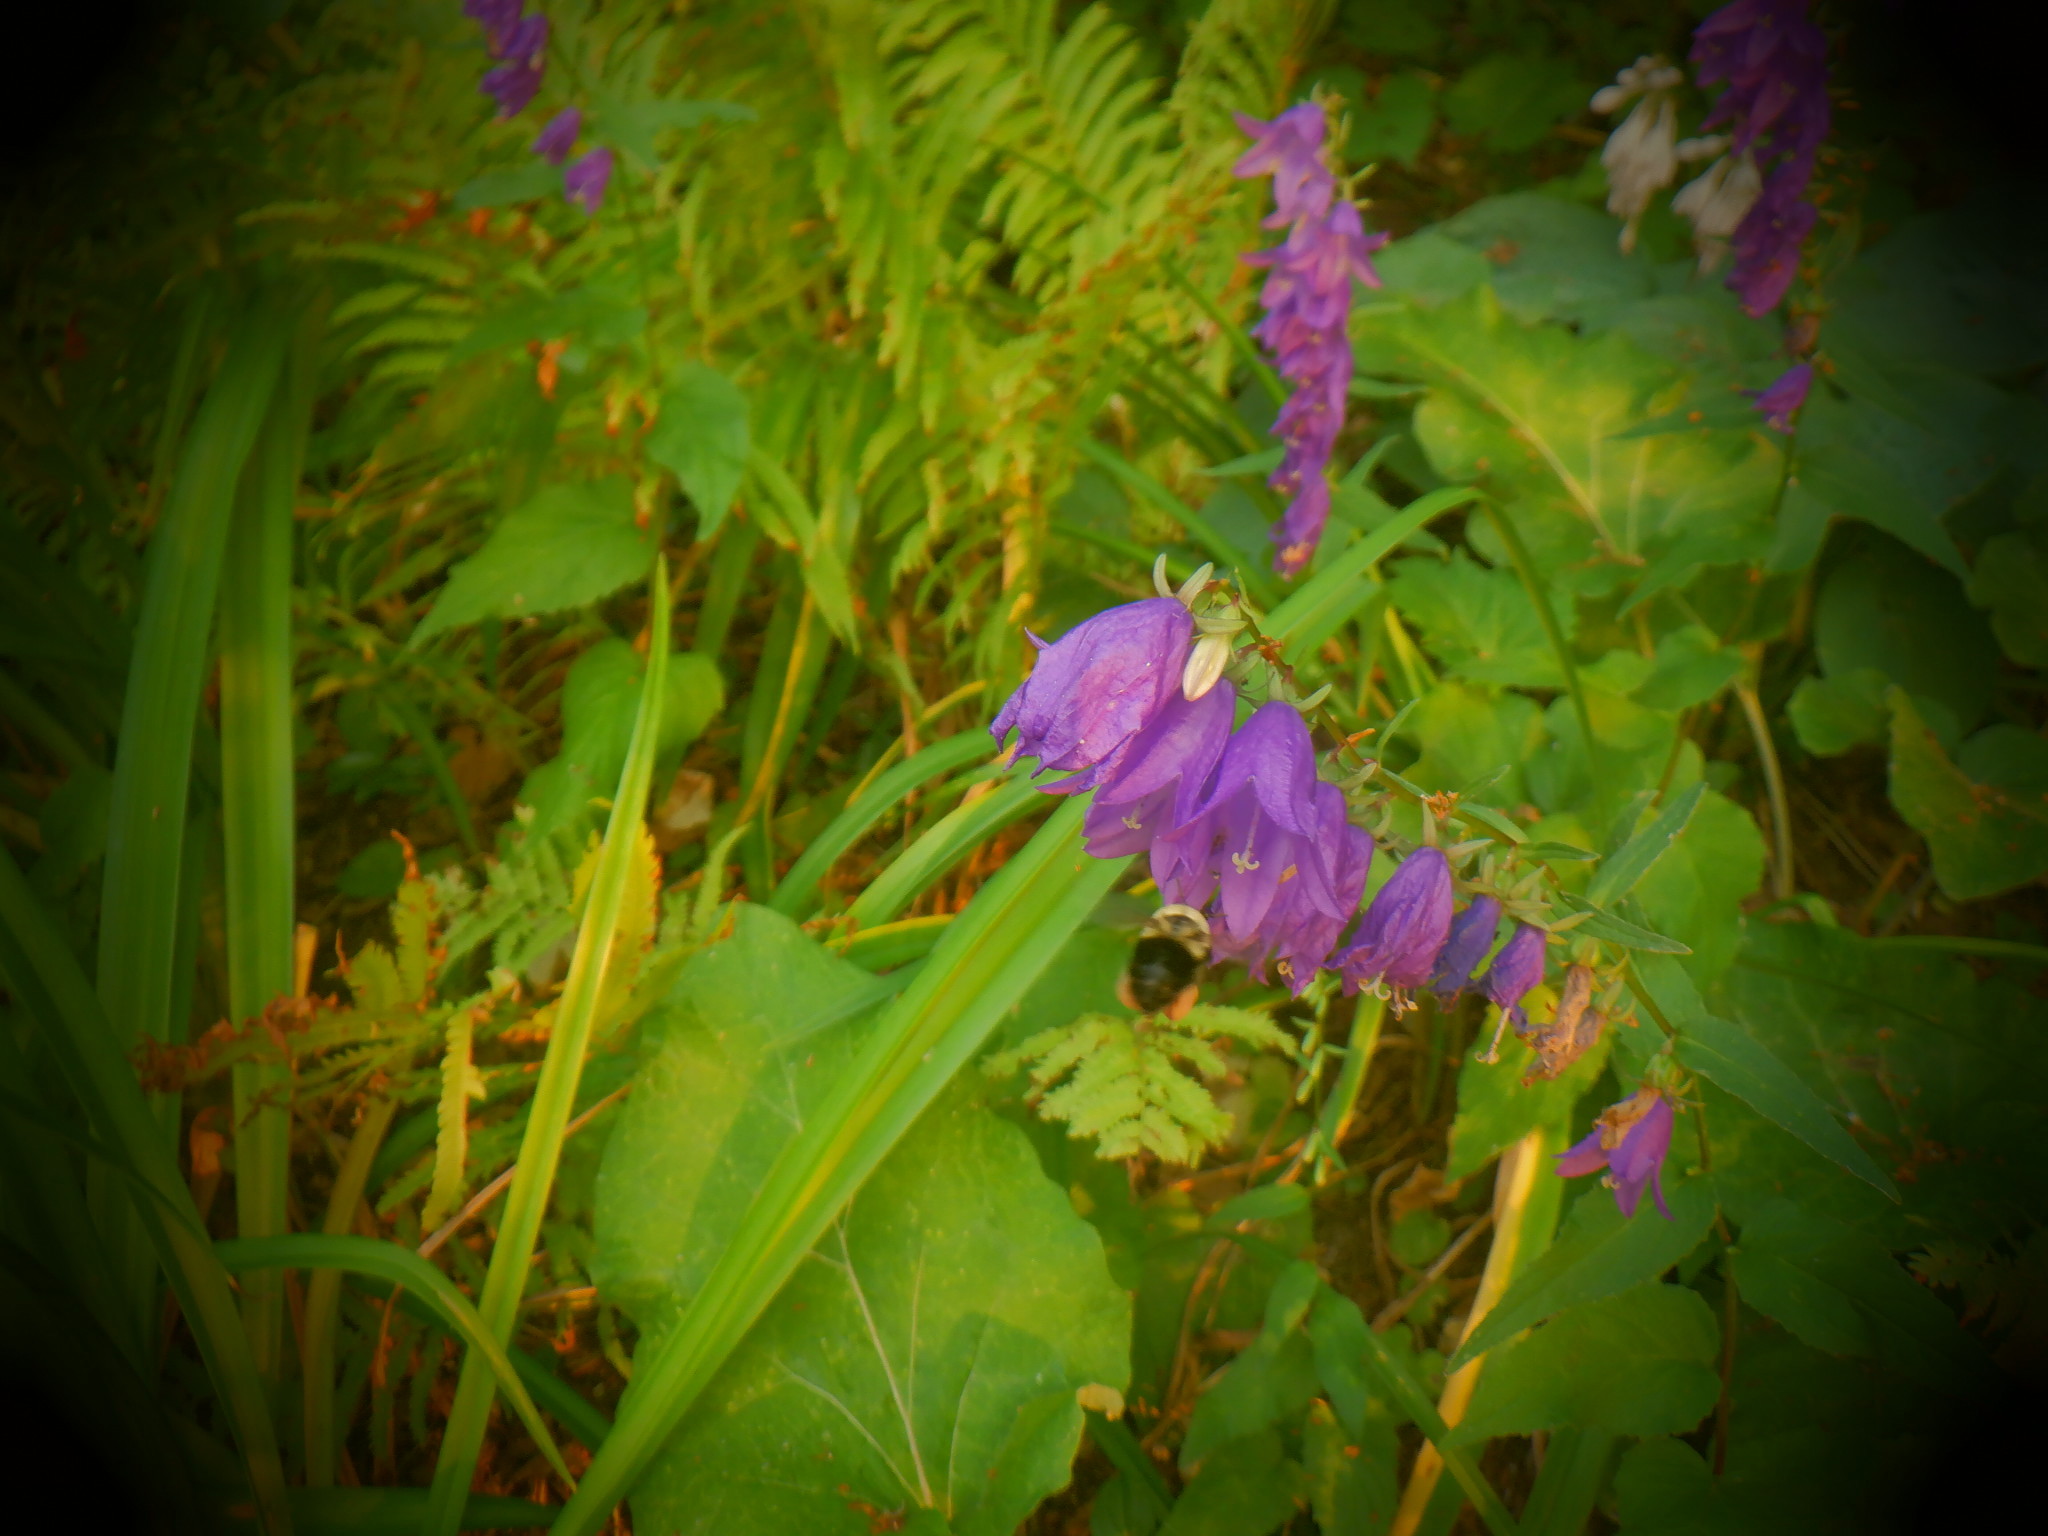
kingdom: Plantae
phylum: Tracheophyta
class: Magnoliopsida
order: Asterales
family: Campanulaceae
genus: Campanula
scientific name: Campanula rapunculoides
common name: Creeping bellflower
